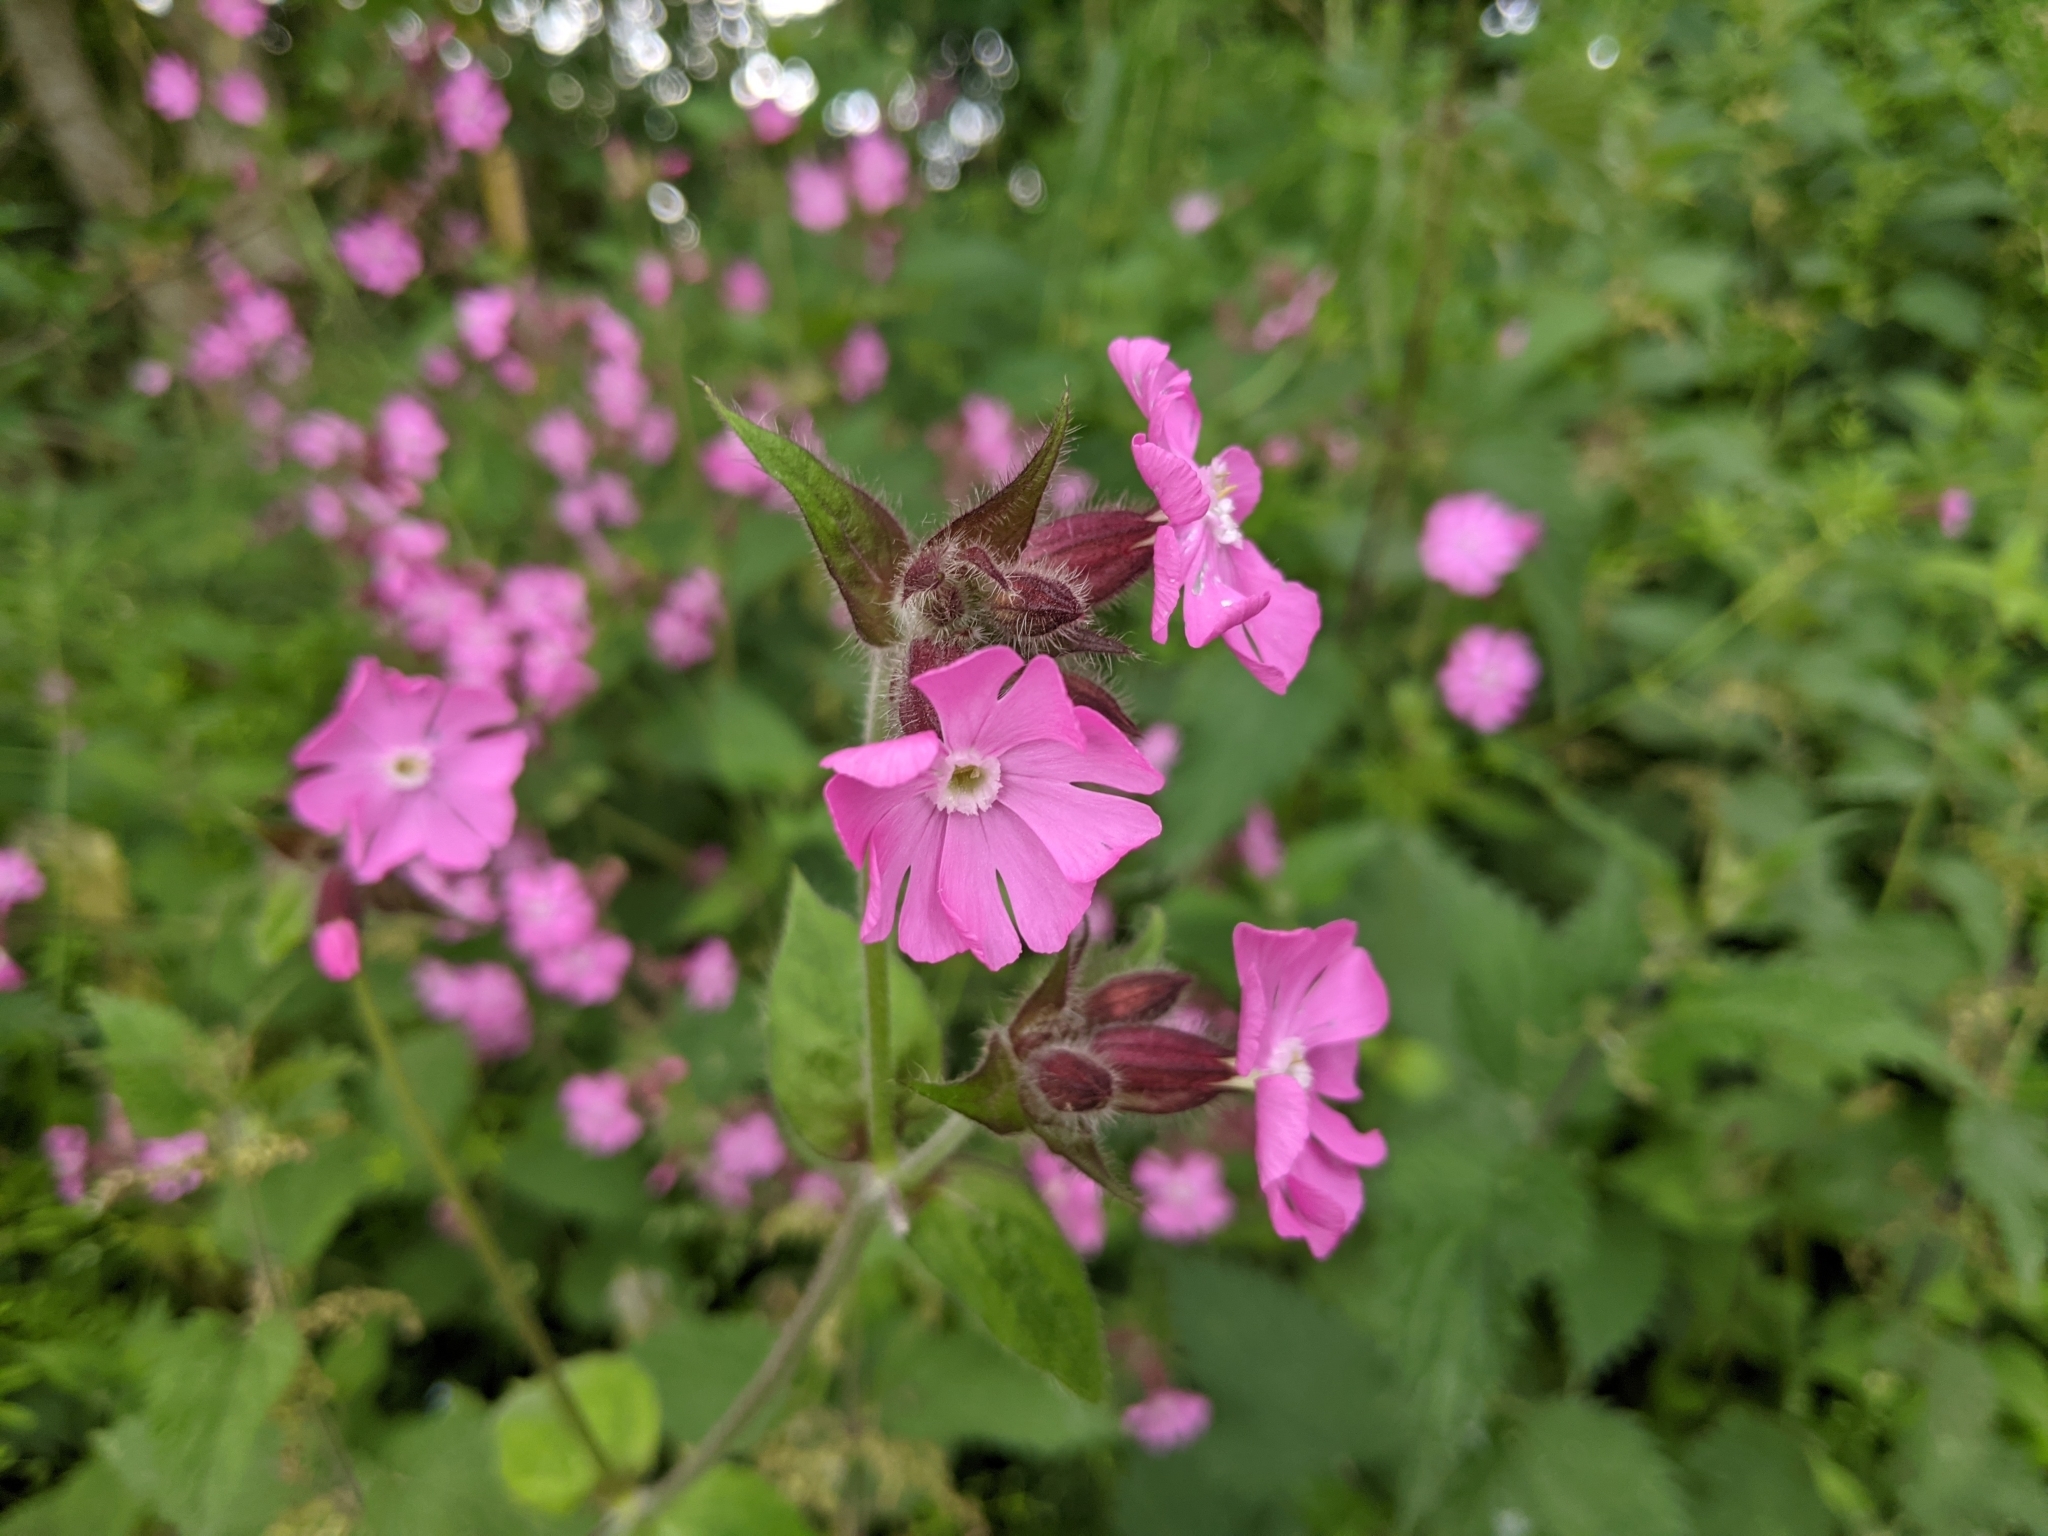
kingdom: Plantae
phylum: Tracheophyta
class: Magnoliopsida
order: Caryophyllales
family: Caryophyllaceae
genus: Silene
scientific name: Silene dioica
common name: Red campion
